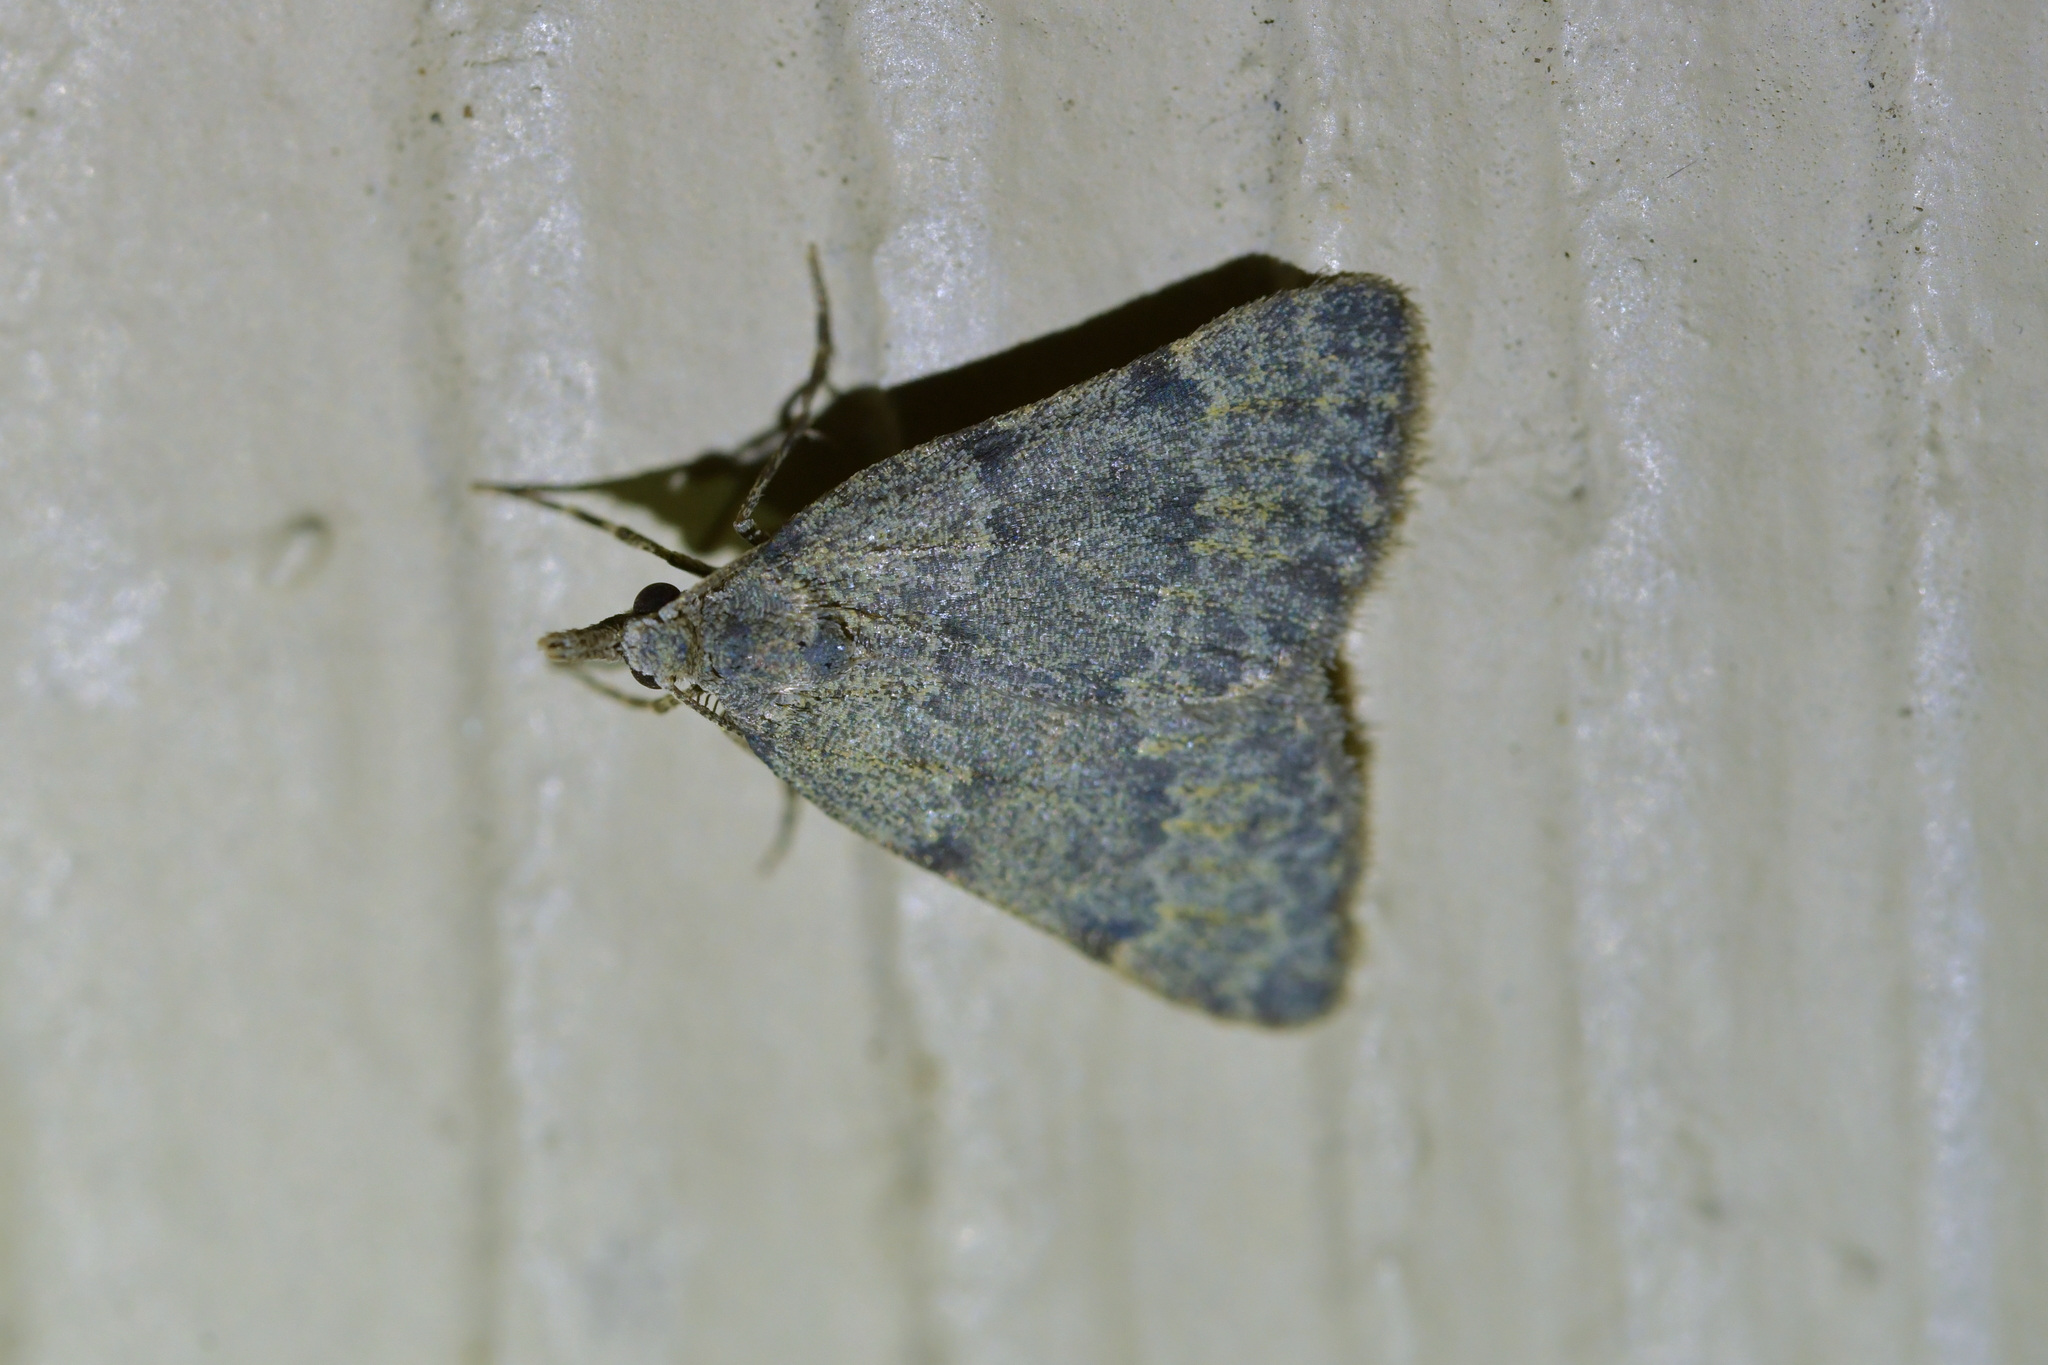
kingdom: Animalia
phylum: Arthropoda
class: Insecta
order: Lepidoptera
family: Geometridae
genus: Dichromodes
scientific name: Dichromodes sphaeriata
